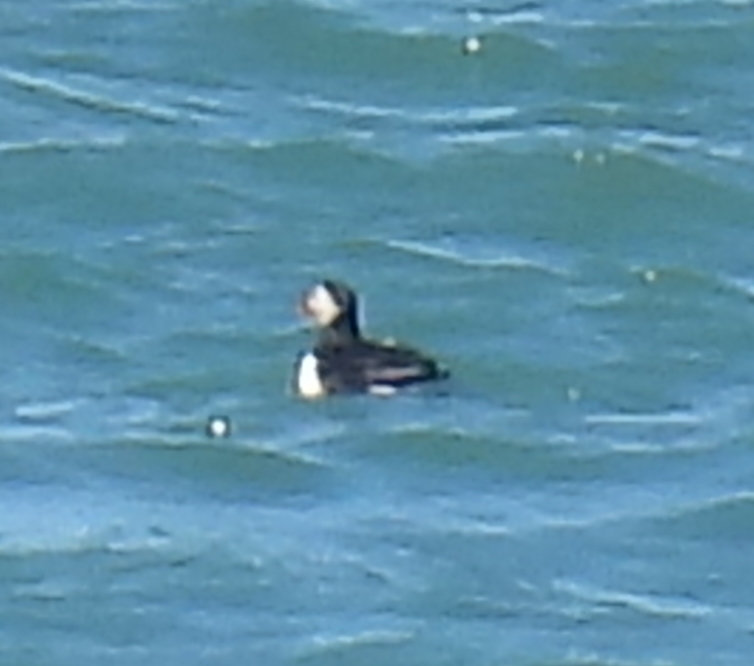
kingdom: Animalia
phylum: Chordata
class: Aves
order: Charadriiformes
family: Alcidae
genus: Fratercula
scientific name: Fratercula arctica
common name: Atlantic puffin
